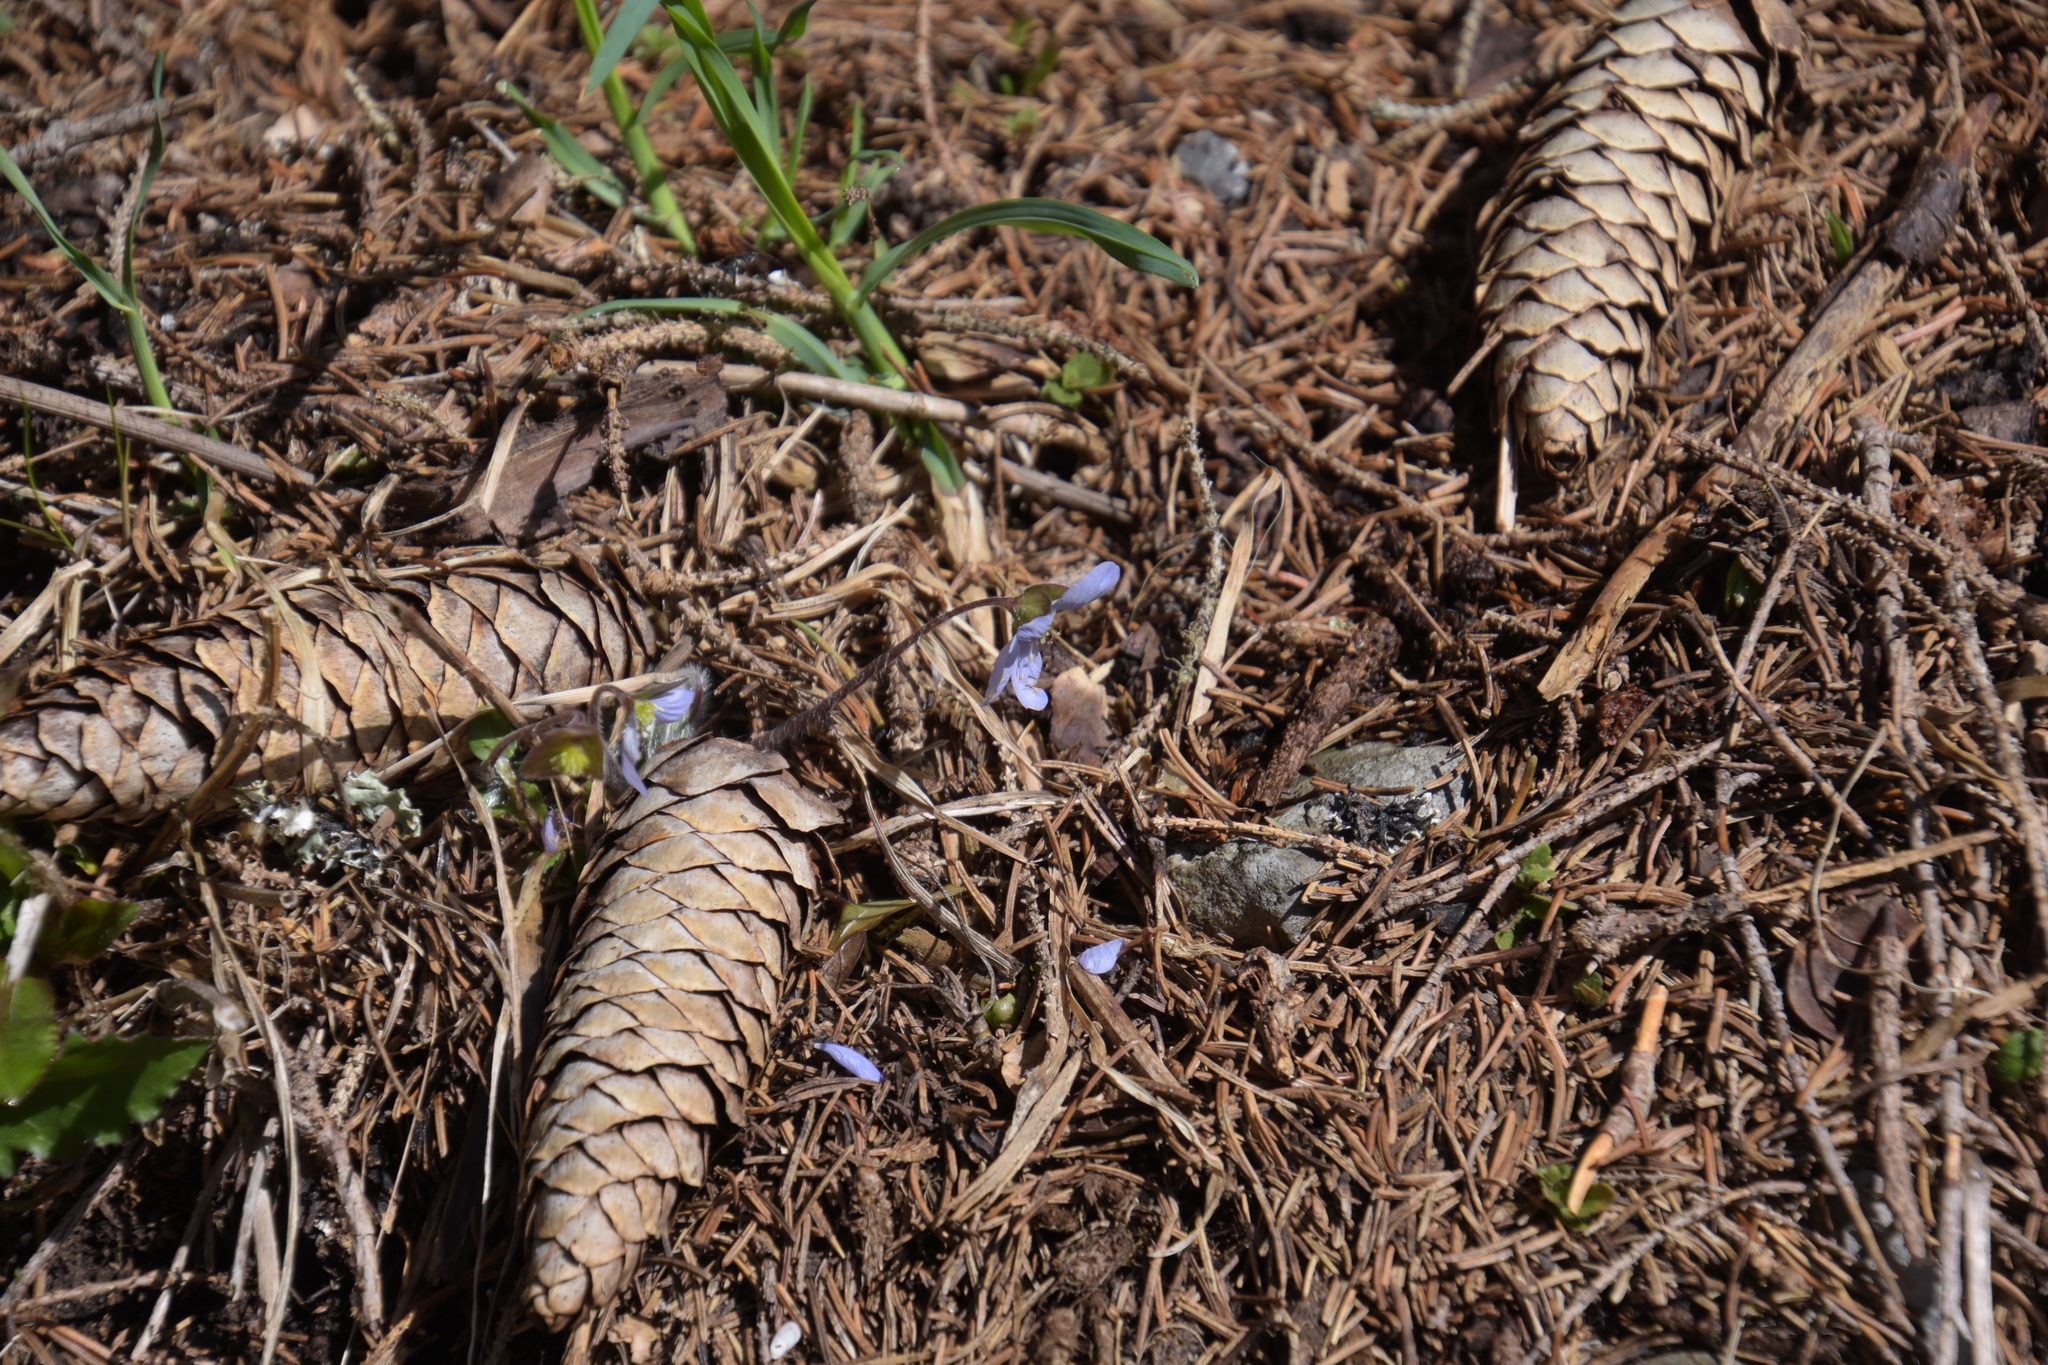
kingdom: Plantae
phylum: Tracheophyta
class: Magnoliopsida
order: Ranunculales
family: Ranunculaceae
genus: Hepatica
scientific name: Hepatica nobilis
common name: Liverleaf
